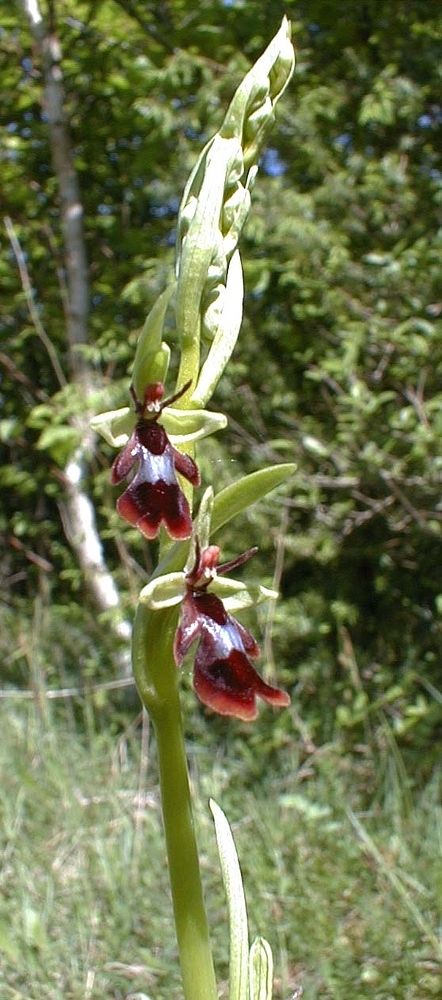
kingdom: Plantae
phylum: Tracheophyta
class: Liliopsida
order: Asparagales
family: Orchidaceae
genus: Ophrys
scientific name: Ophrys insectifera
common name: Fly orchid
